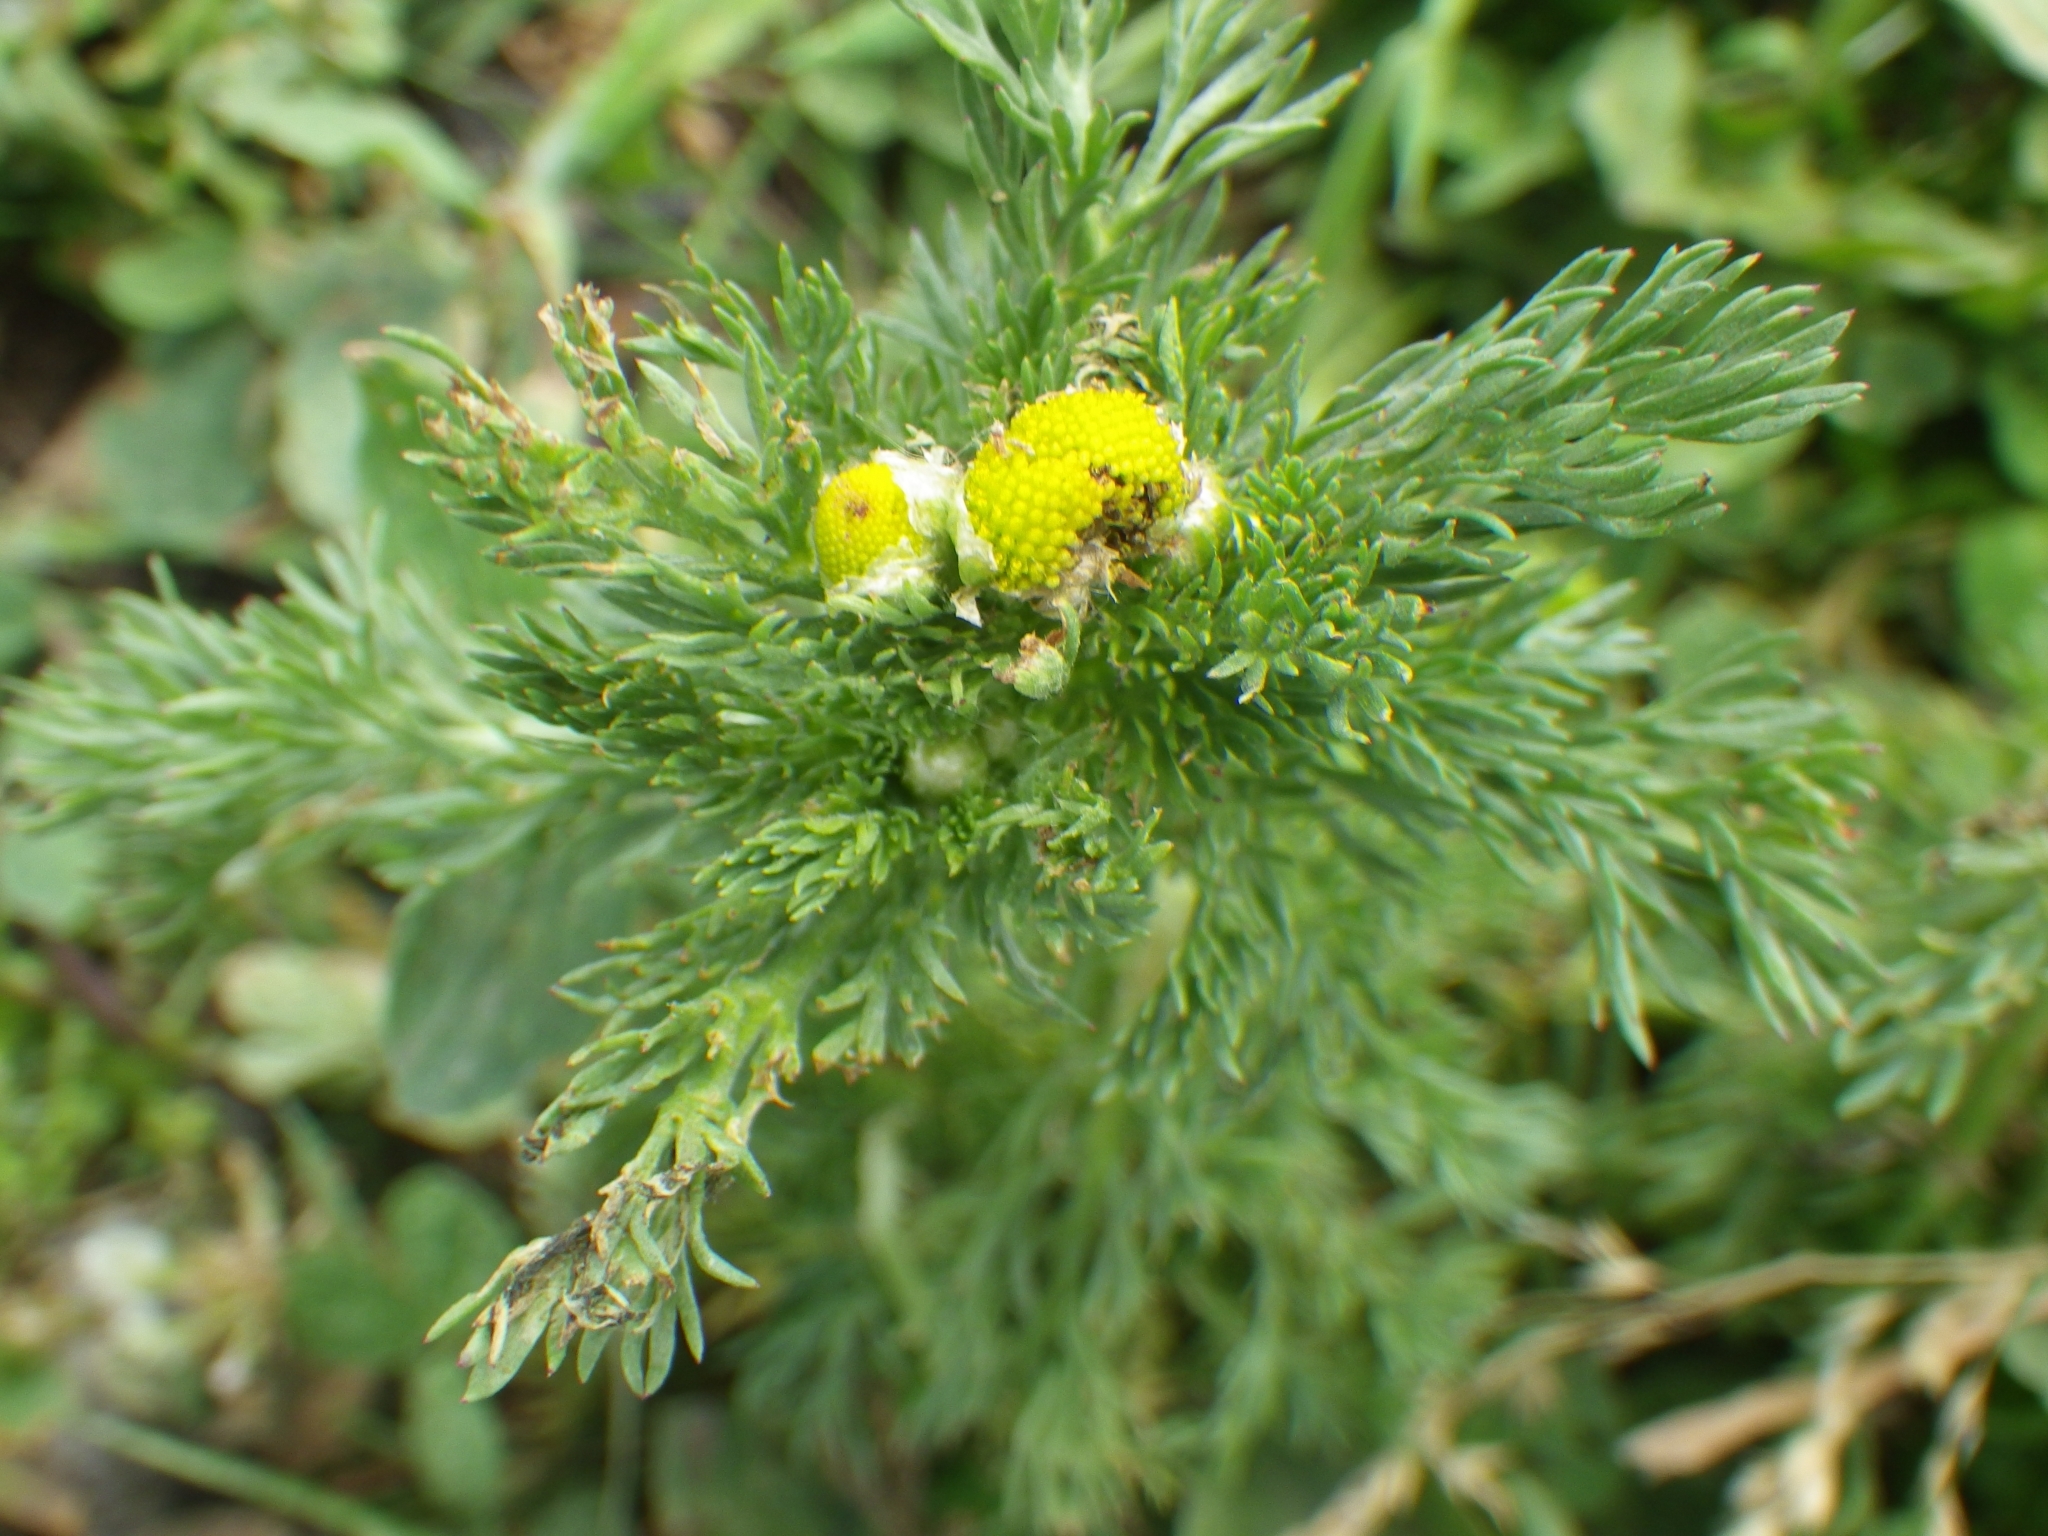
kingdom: Plantae
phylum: Tracheophyta
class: Magnoliopsida
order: Asterales
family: Asteraceae
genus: Matricaria
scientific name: Matricaria discoidea
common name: Disc mayweed
